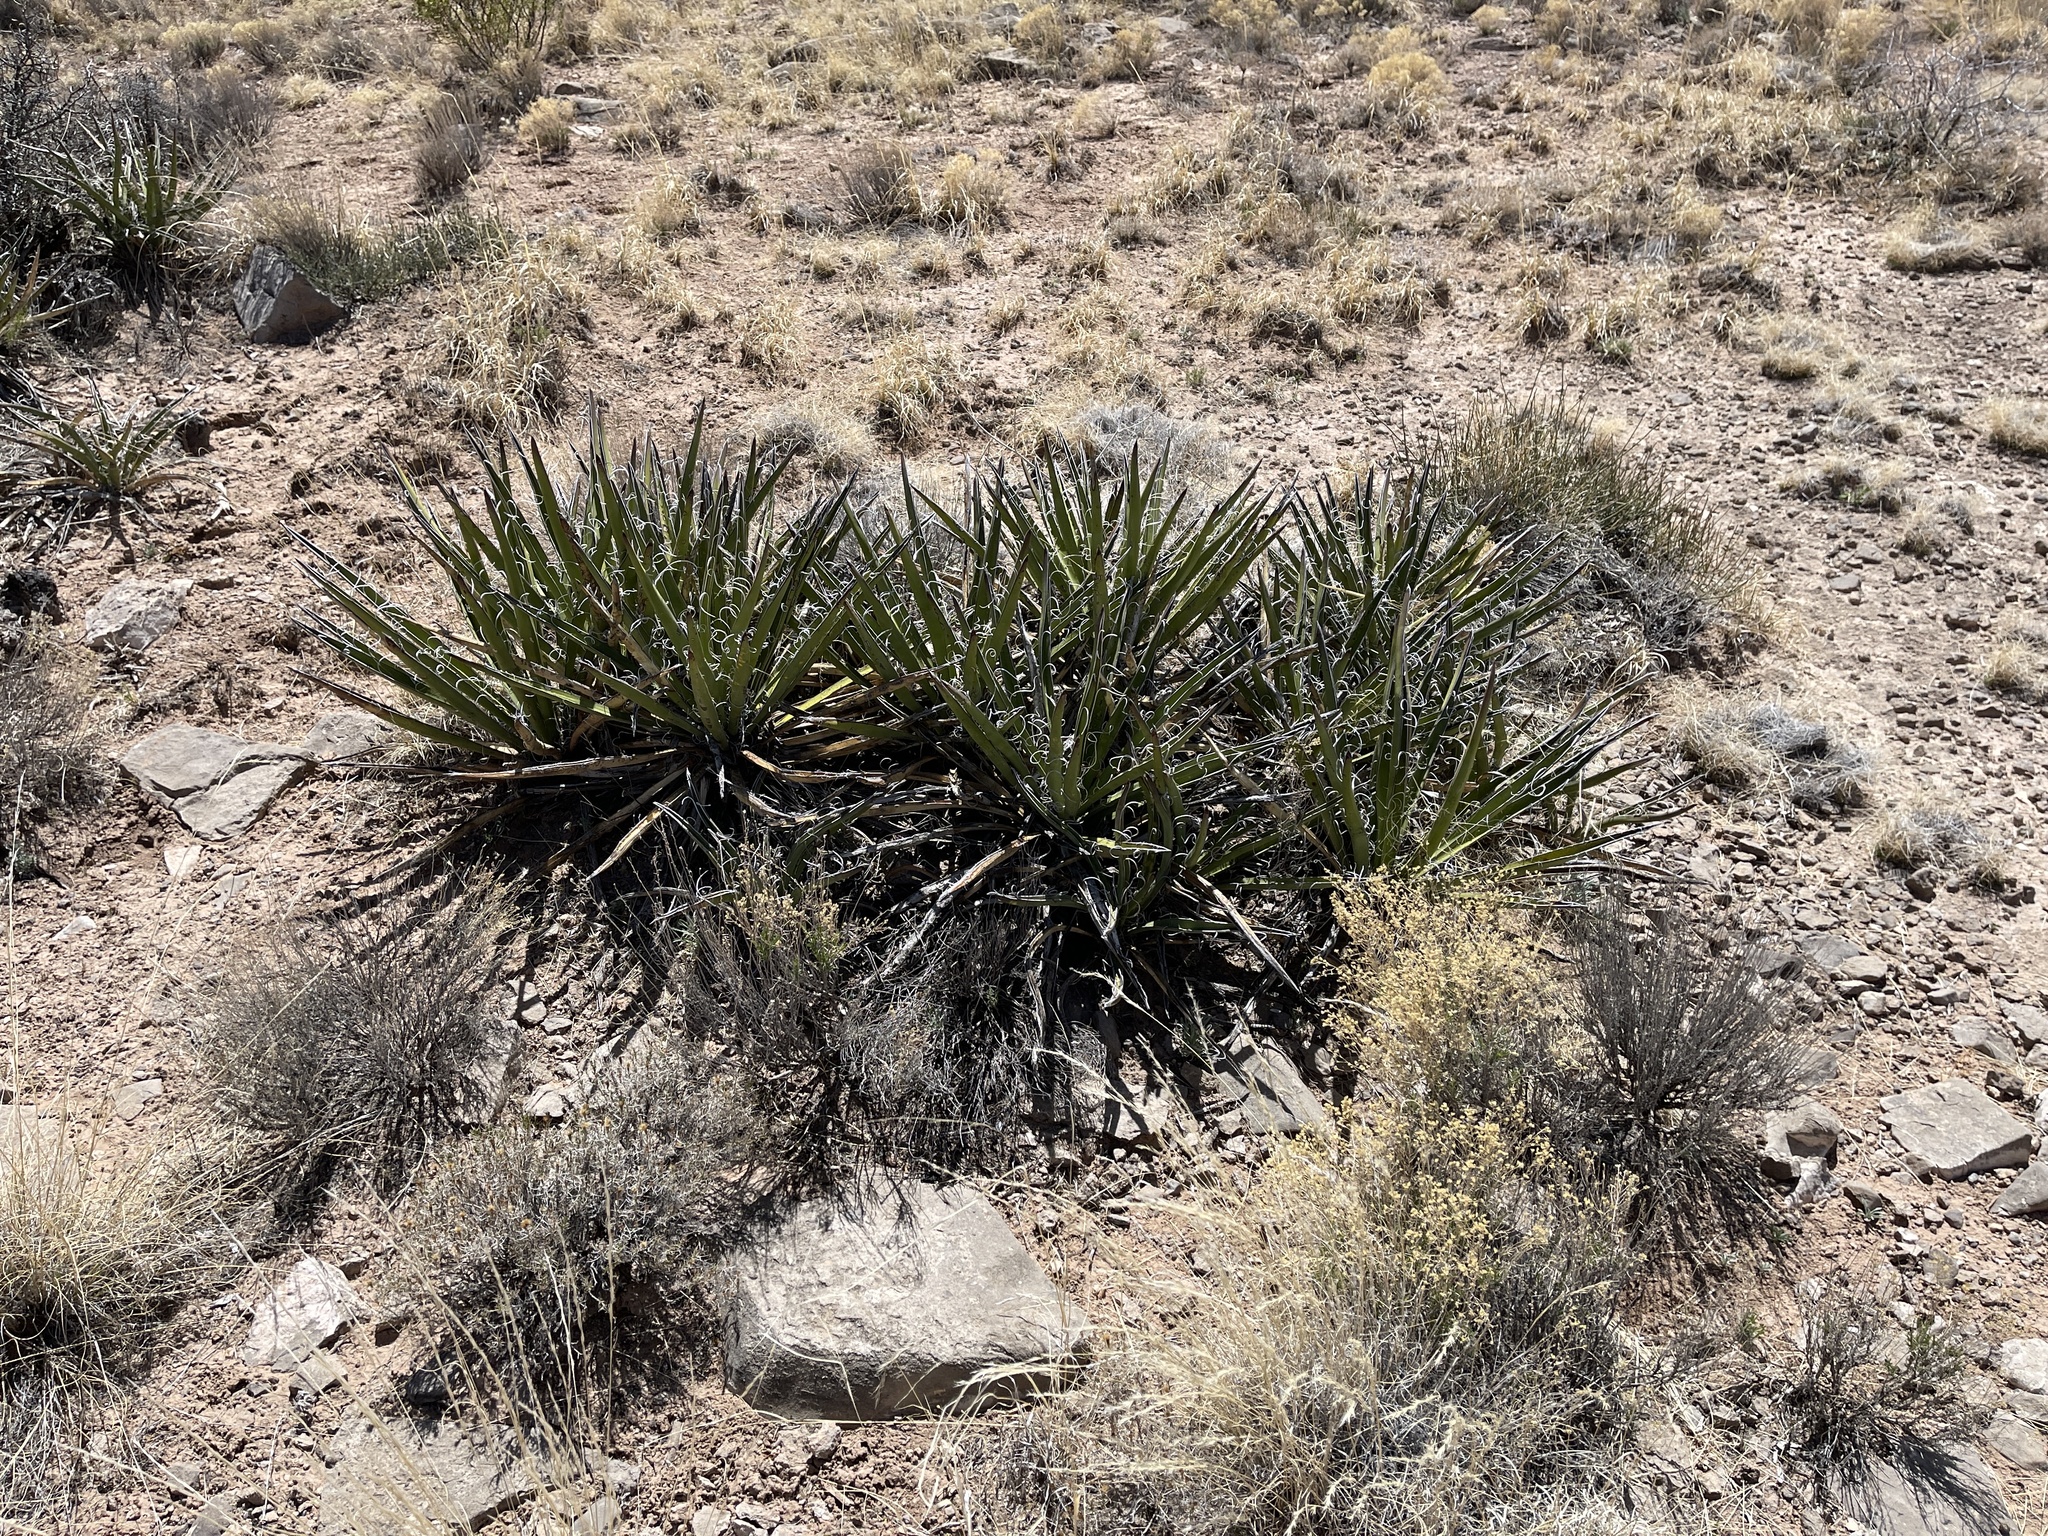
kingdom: Plantae
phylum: Tracheophyta
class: Liliopsida
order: Asparagales
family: Asparagaceae
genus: Yucca
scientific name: Yucca baccata
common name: Banana yucca
